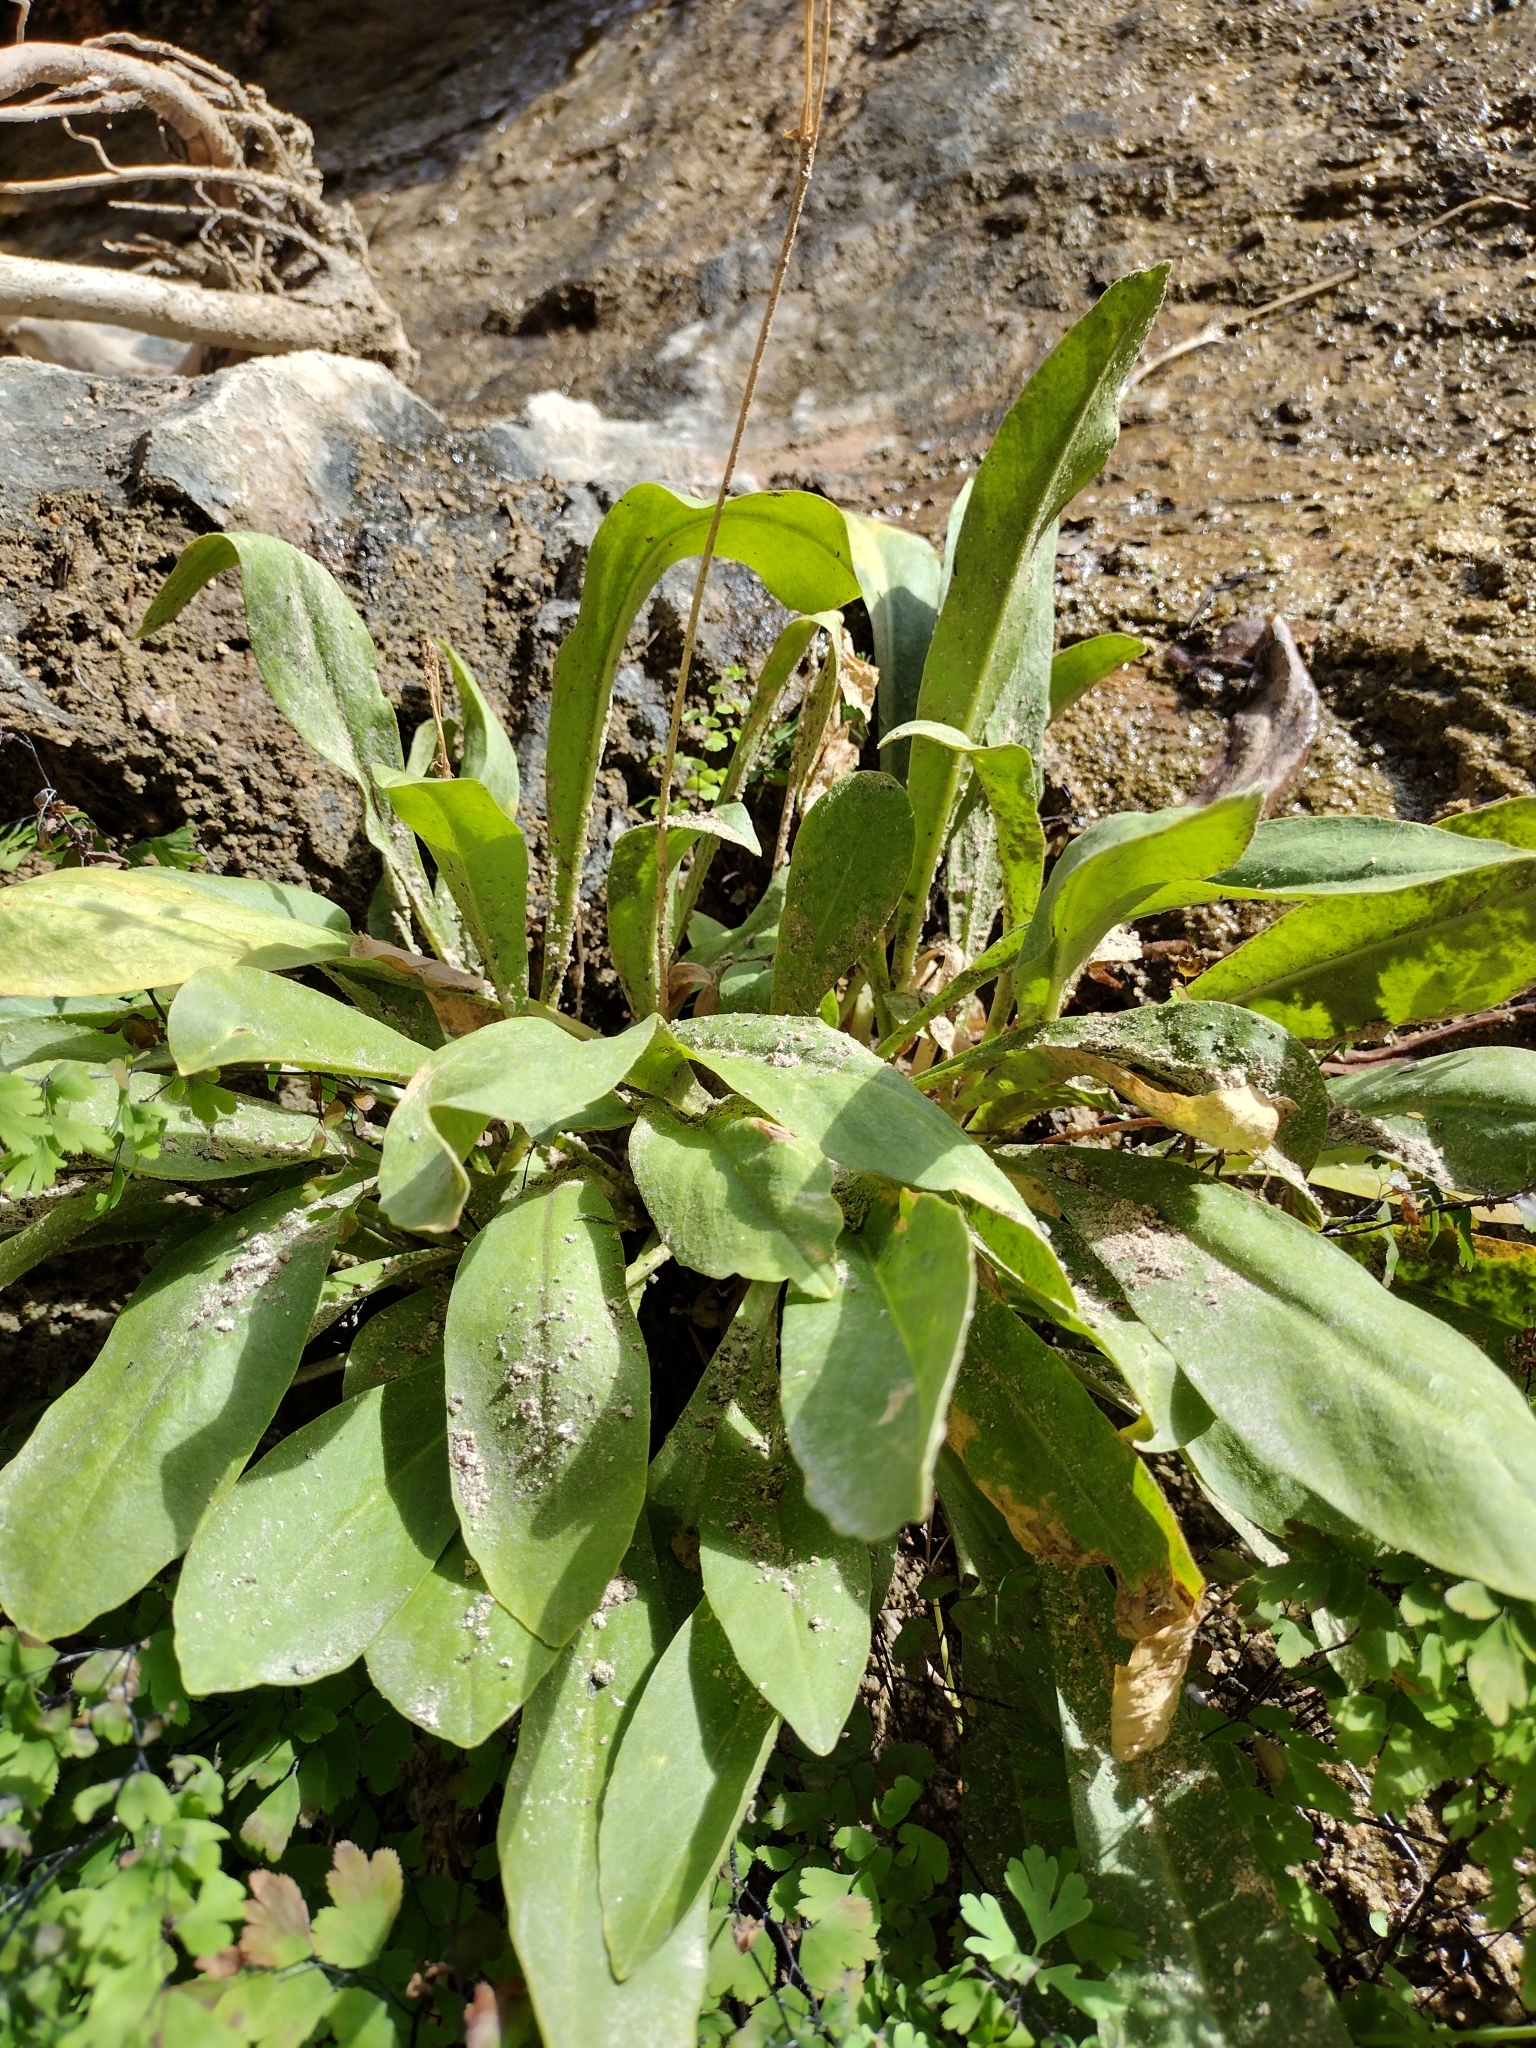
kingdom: Plantae
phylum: Tracheophyta
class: Magnoliopsida
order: Ericales
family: Primulaceae
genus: Dodecatheon
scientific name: Dodecatheon pulchellum
